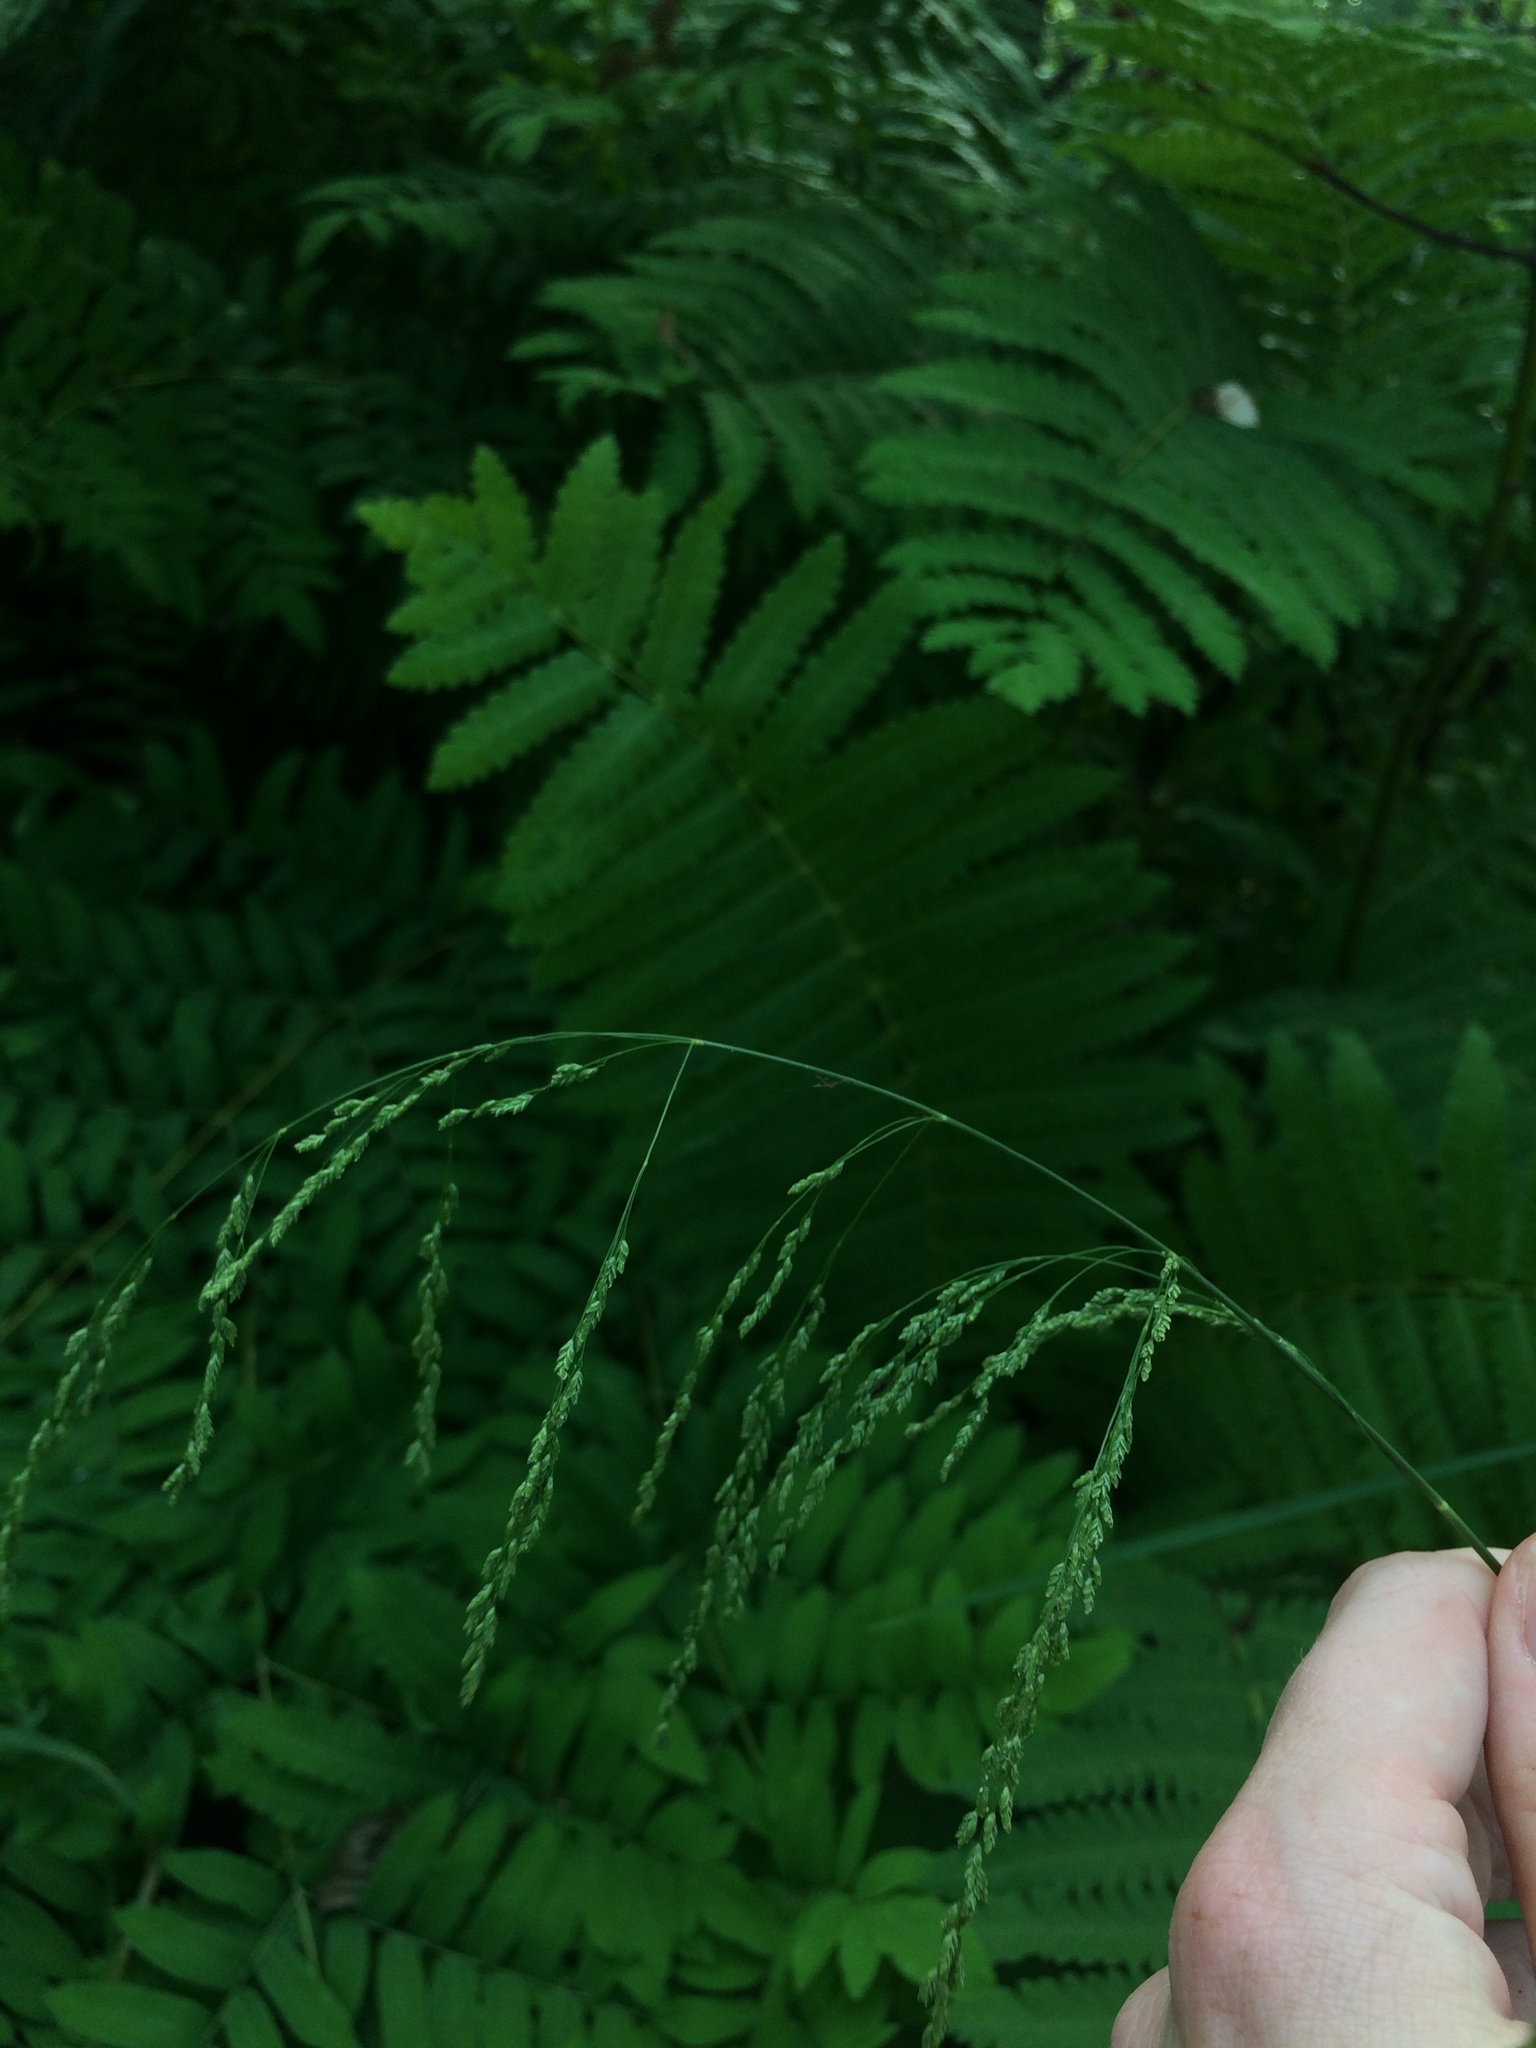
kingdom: Plantae
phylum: Tracheophyta
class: Liliopsida
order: Poales
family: Poaceae
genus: Glyceria
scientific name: Glyceria striata
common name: Fowl manna grass
